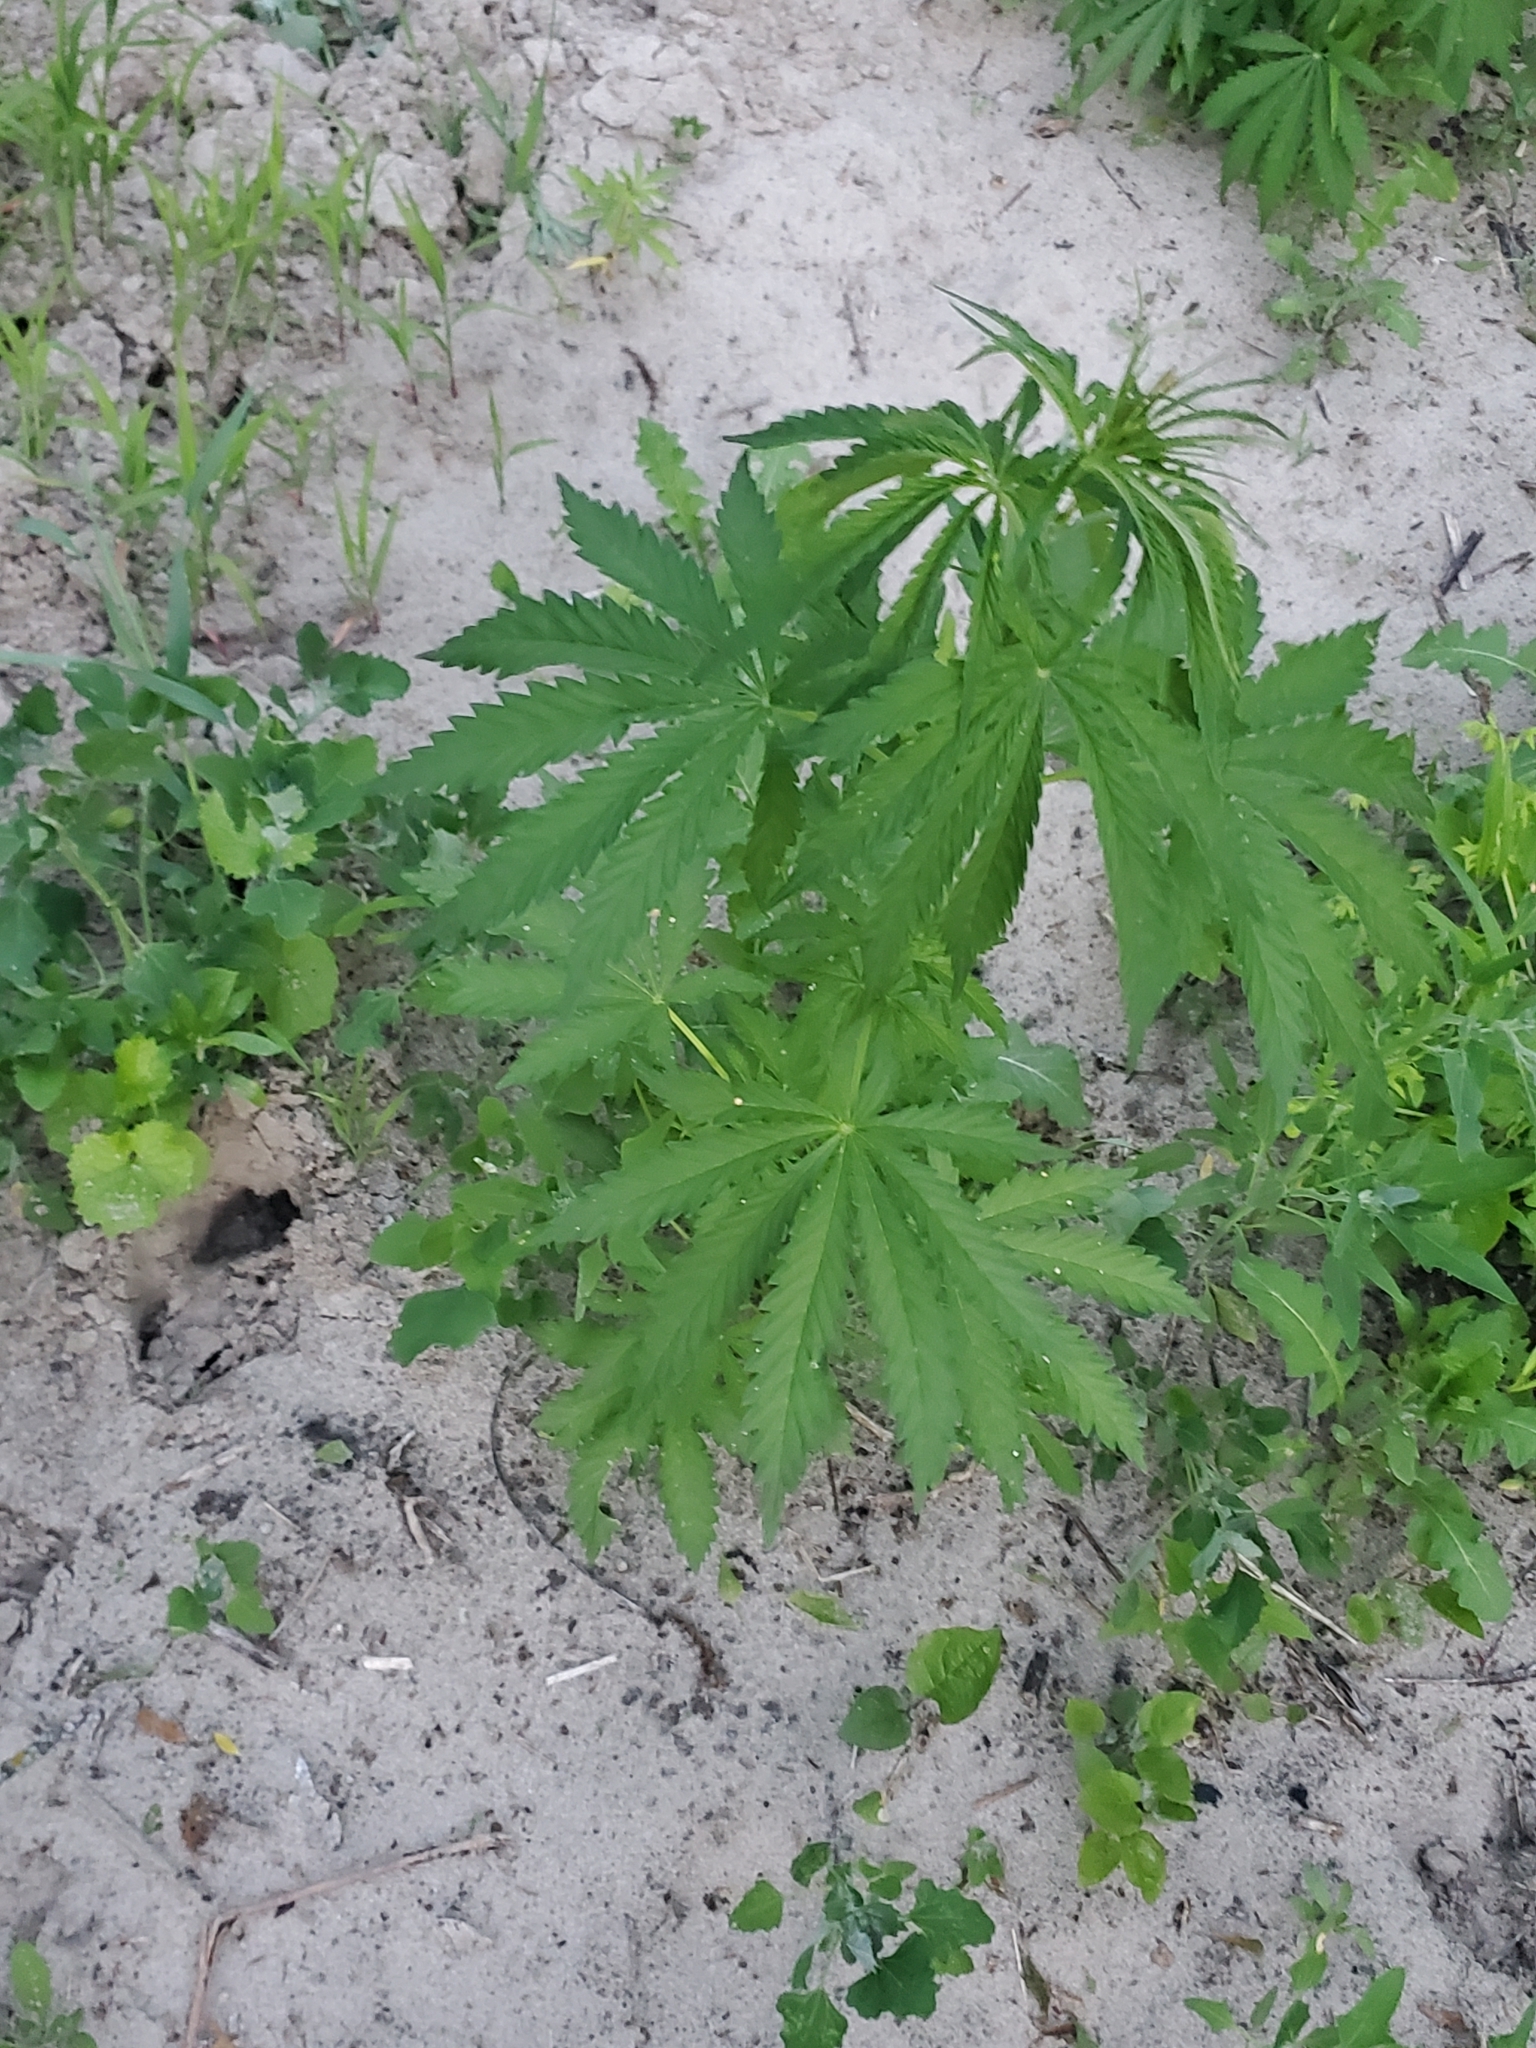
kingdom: Plantae
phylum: Tracheophyta
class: Magnoliopsida
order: Rosales
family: Cannabaceae
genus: Cannabis
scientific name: Cannabis sativa
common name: Hemp
